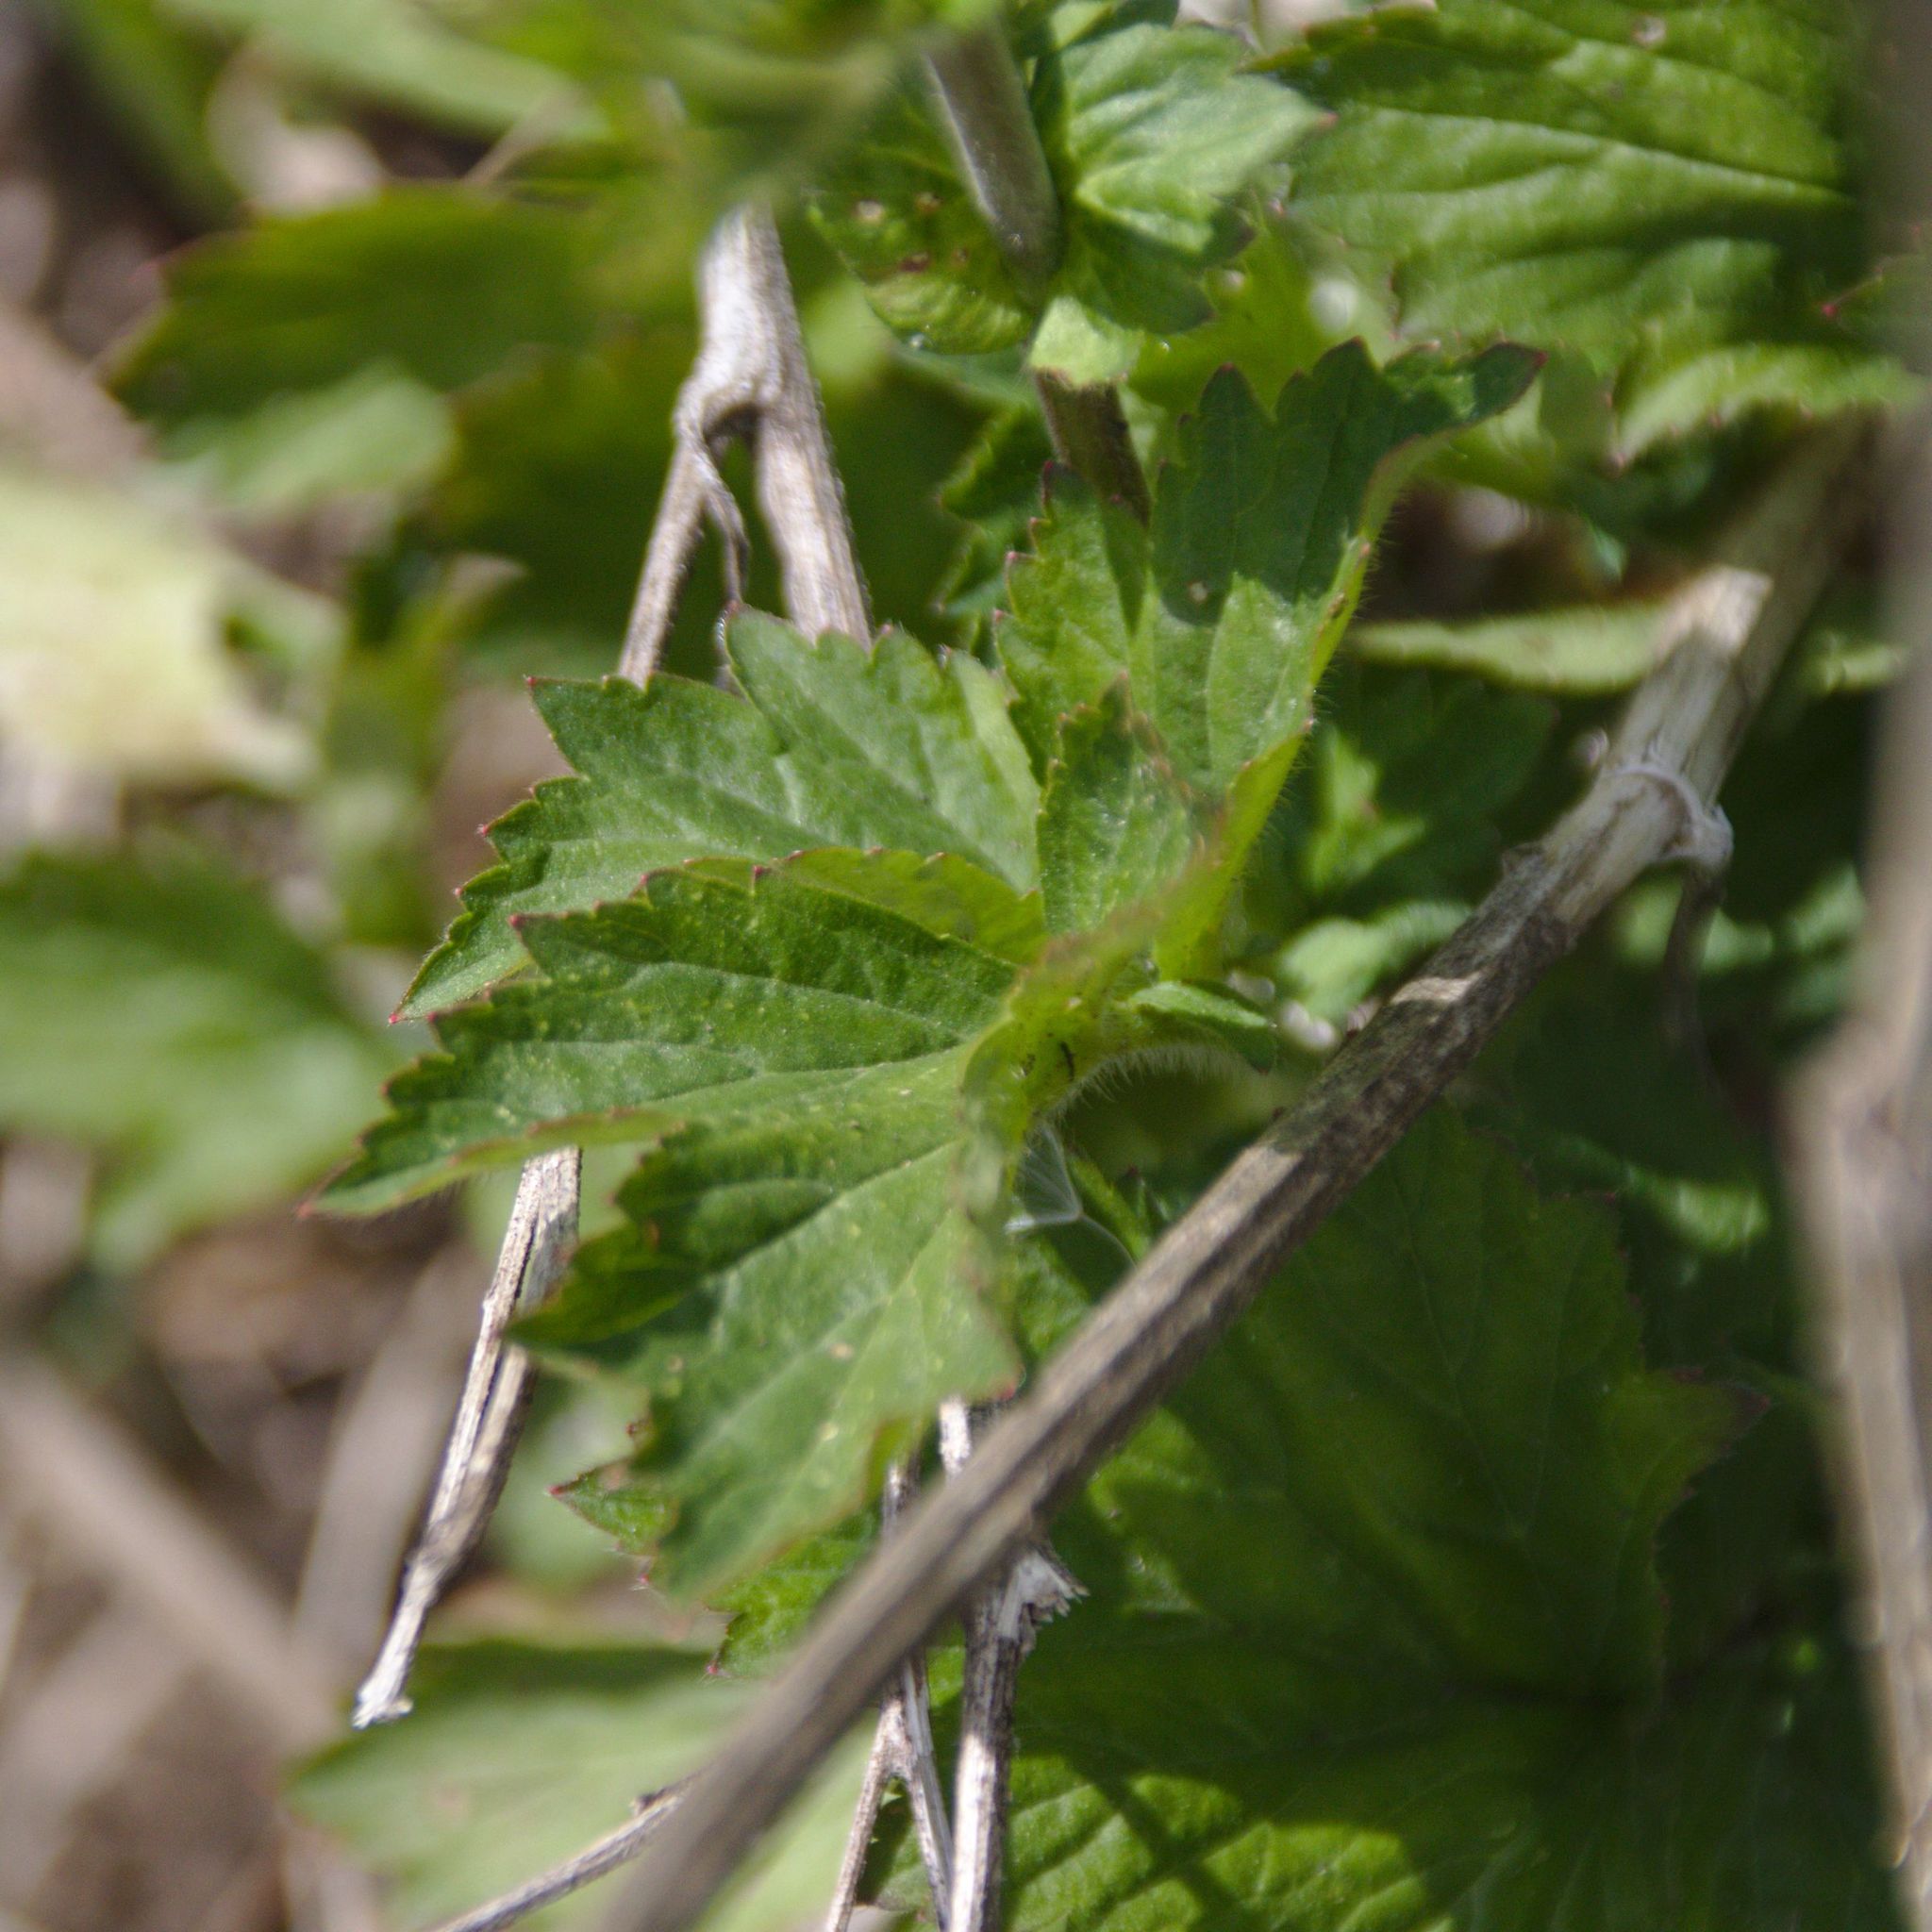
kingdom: Plantae
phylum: Tracheophyta
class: Magnoliopsida
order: Rosales
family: Rosaceae
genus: Geum
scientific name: Geum aleppicum
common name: Yellow avens
